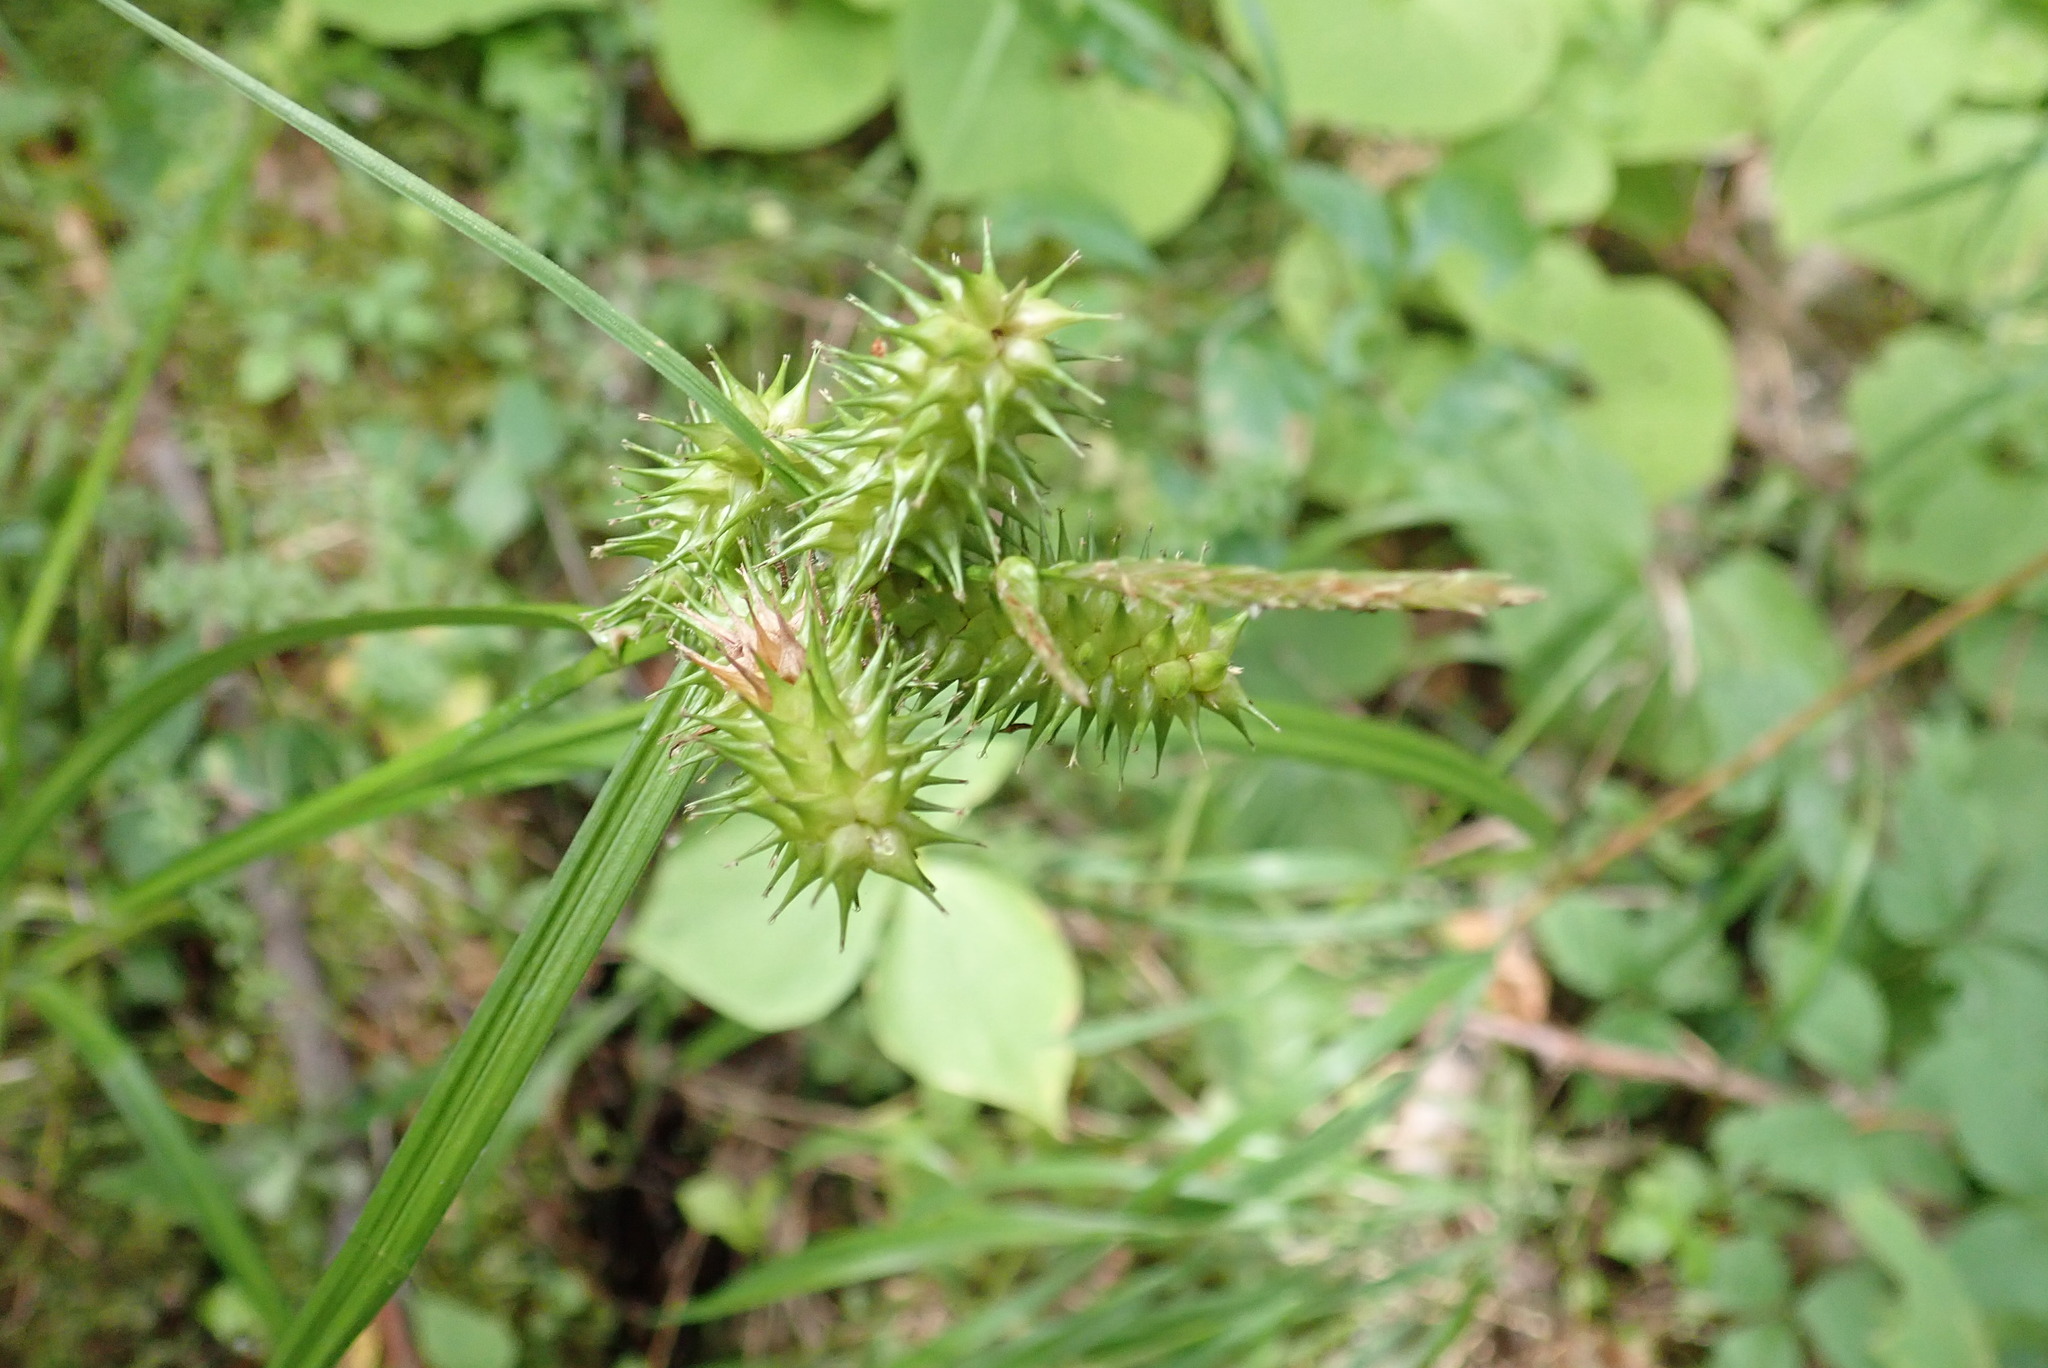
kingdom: Plantae
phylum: Tracheophyta
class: Liliopsida
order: Poales
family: Cyperaceae
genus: Carex
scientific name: Carex retrorsa
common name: Knot-sheath sedge
